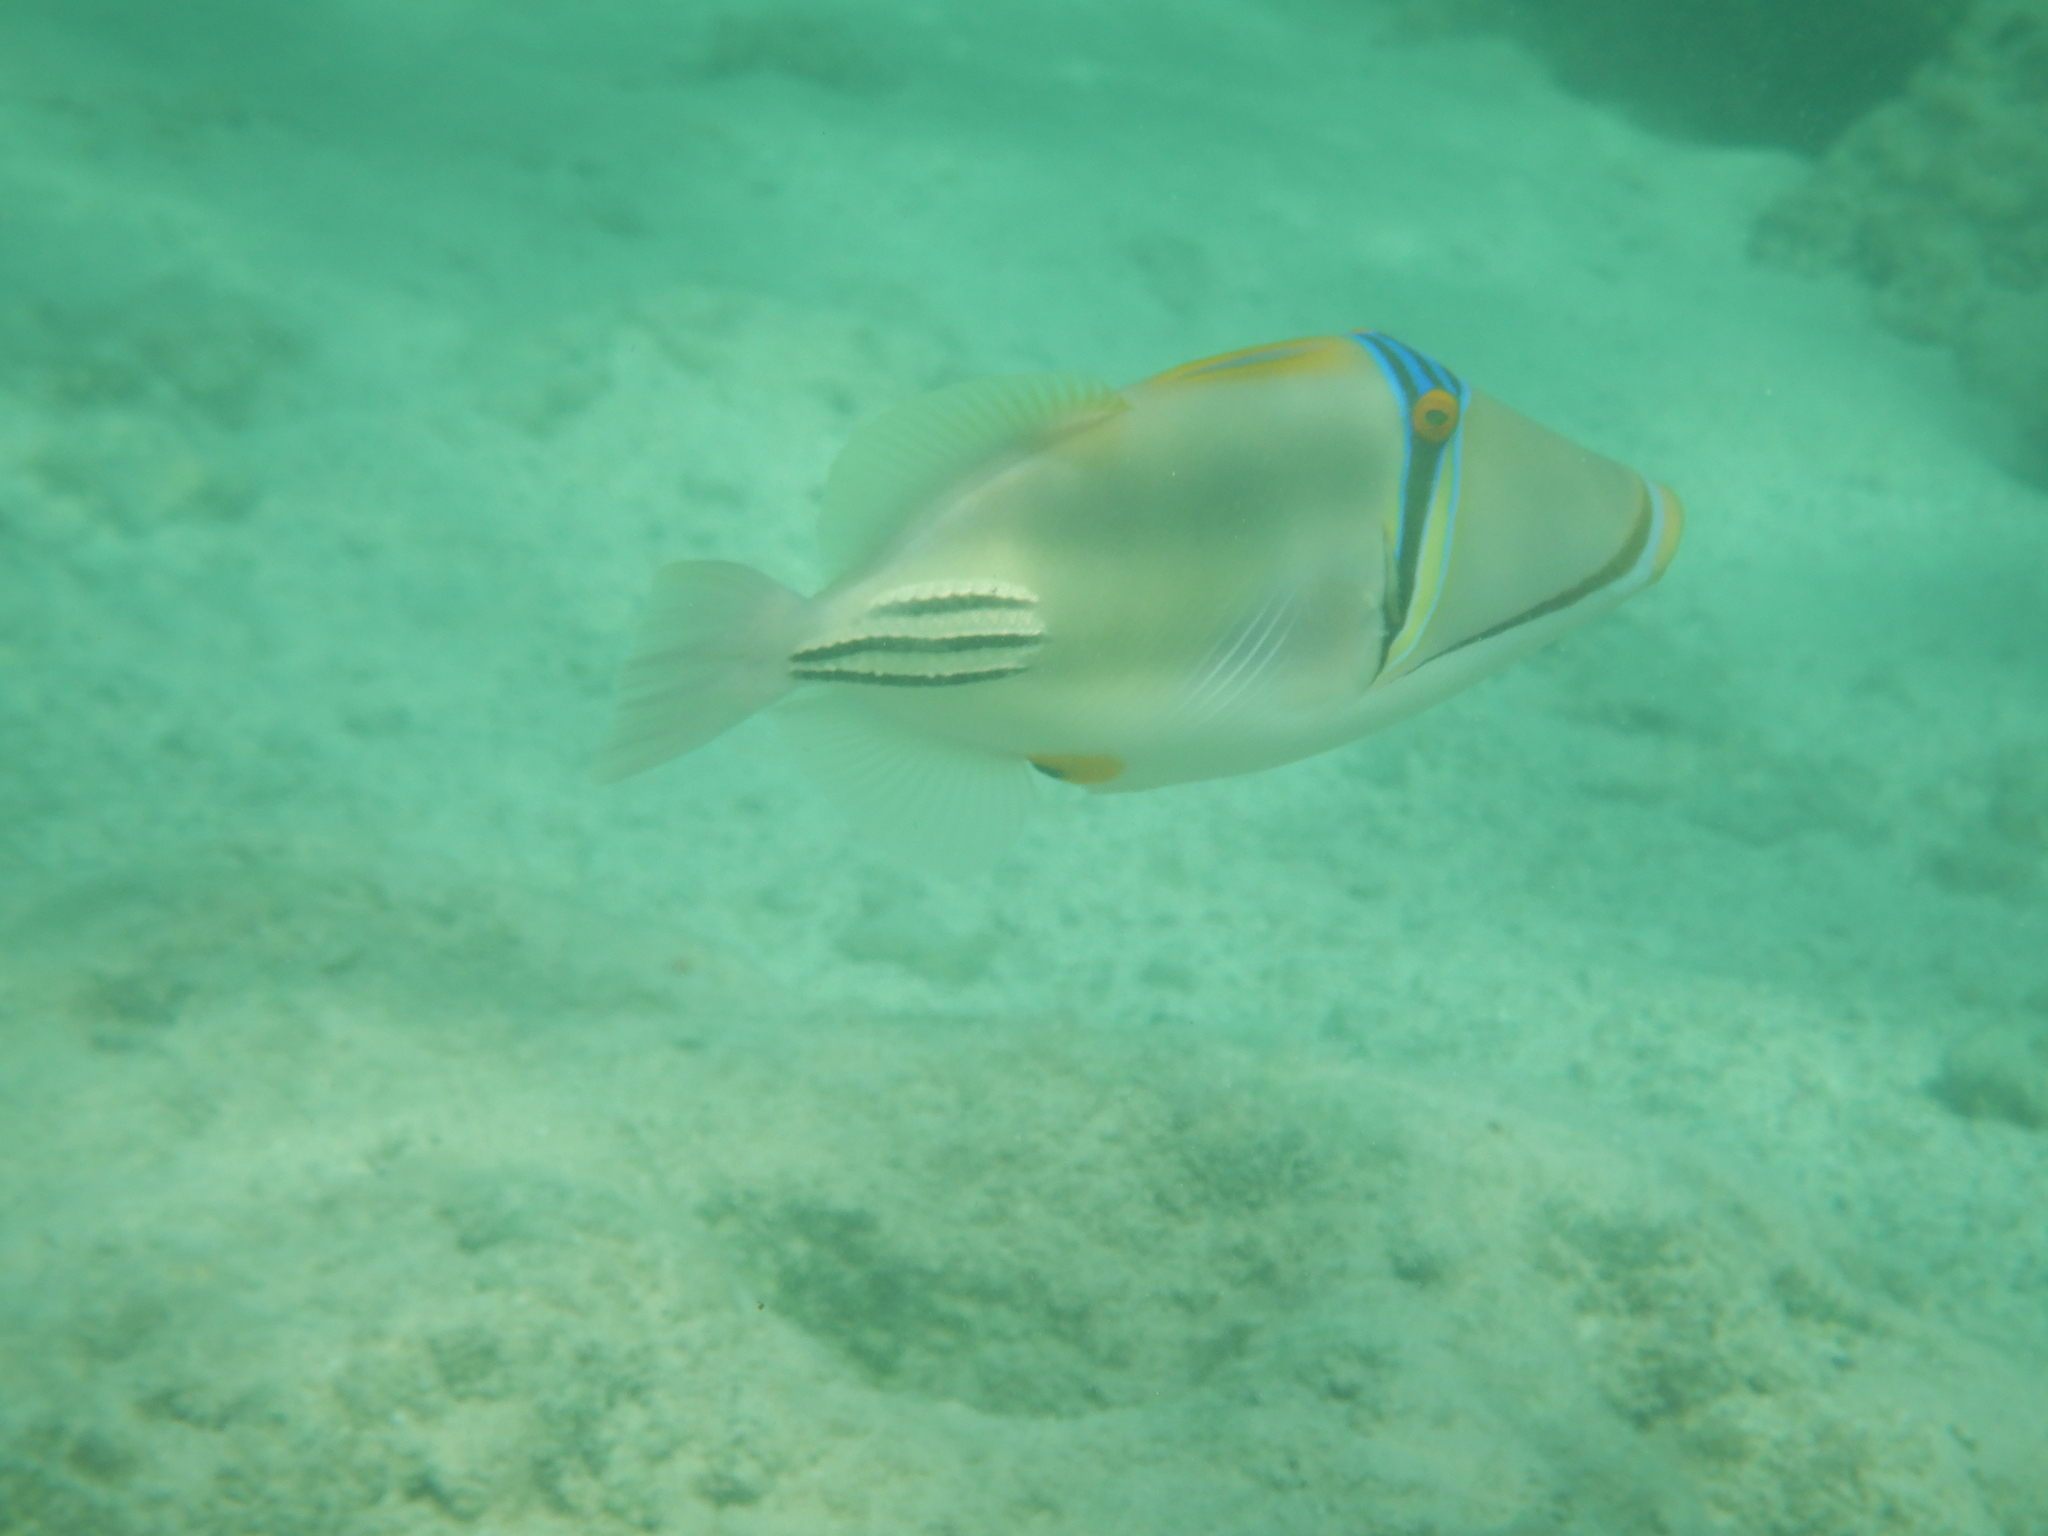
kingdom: Animalia
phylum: Chordata
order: Tetraodontiformes
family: Balistidae
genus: Rhinecanthus
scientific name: Rhinecanthus assasi
